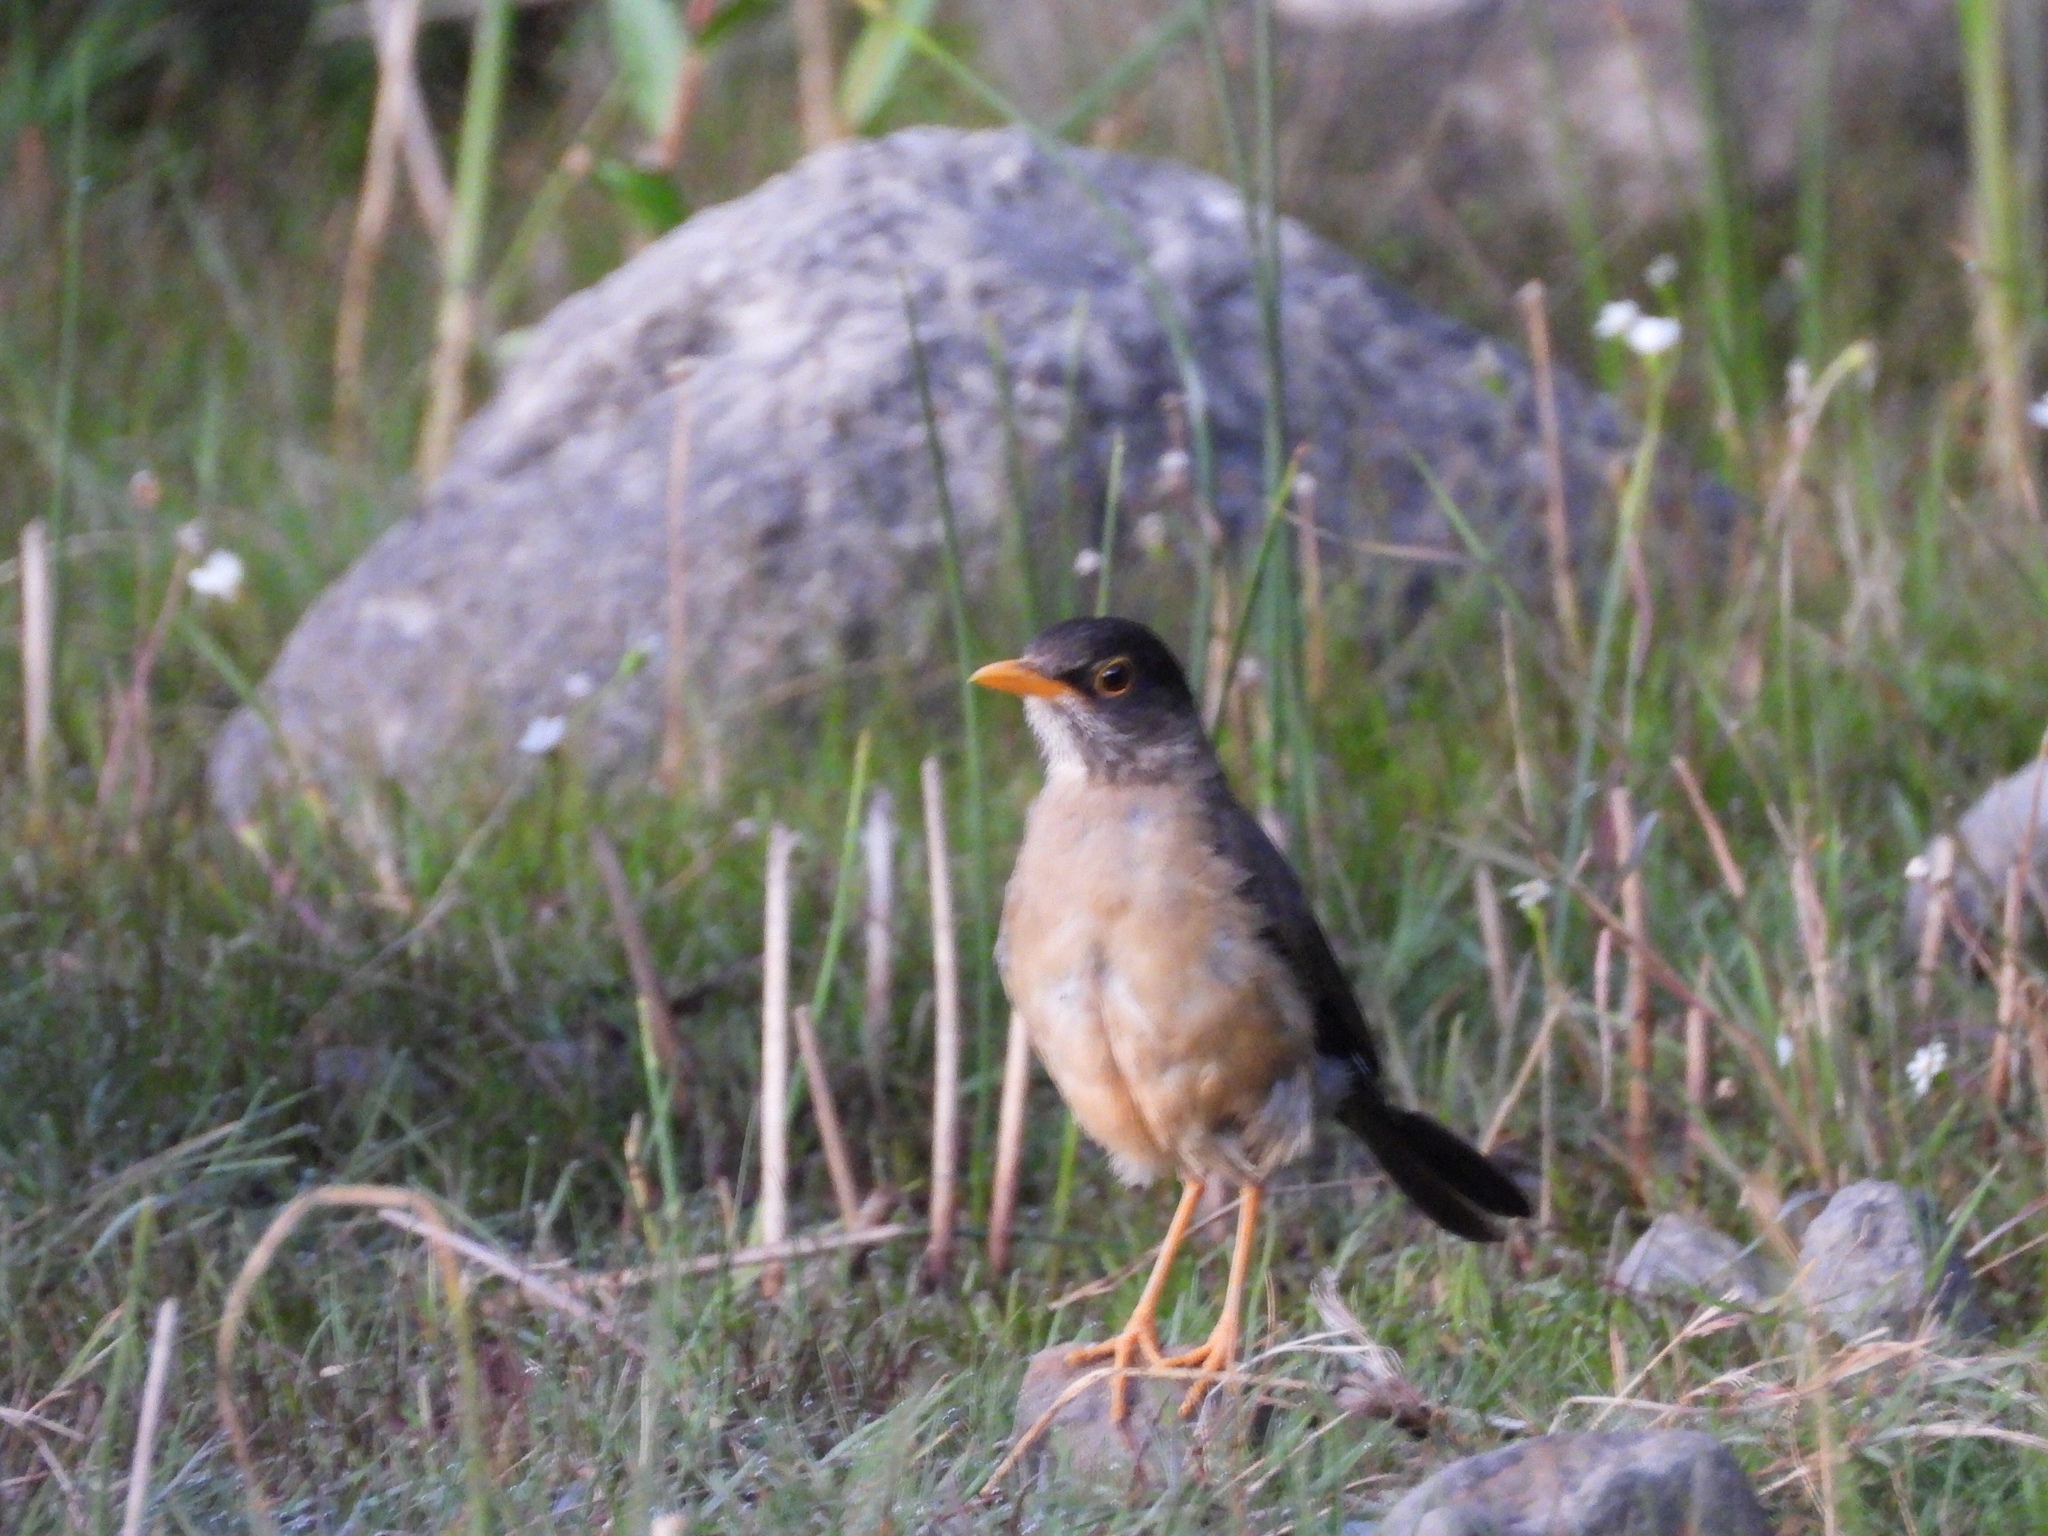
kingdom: Animalia
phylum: Chordata
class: Aves
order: Passeriformes
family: Turdidae
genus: Turdus
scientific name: Turdus falcklandii
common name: Austral thrush
